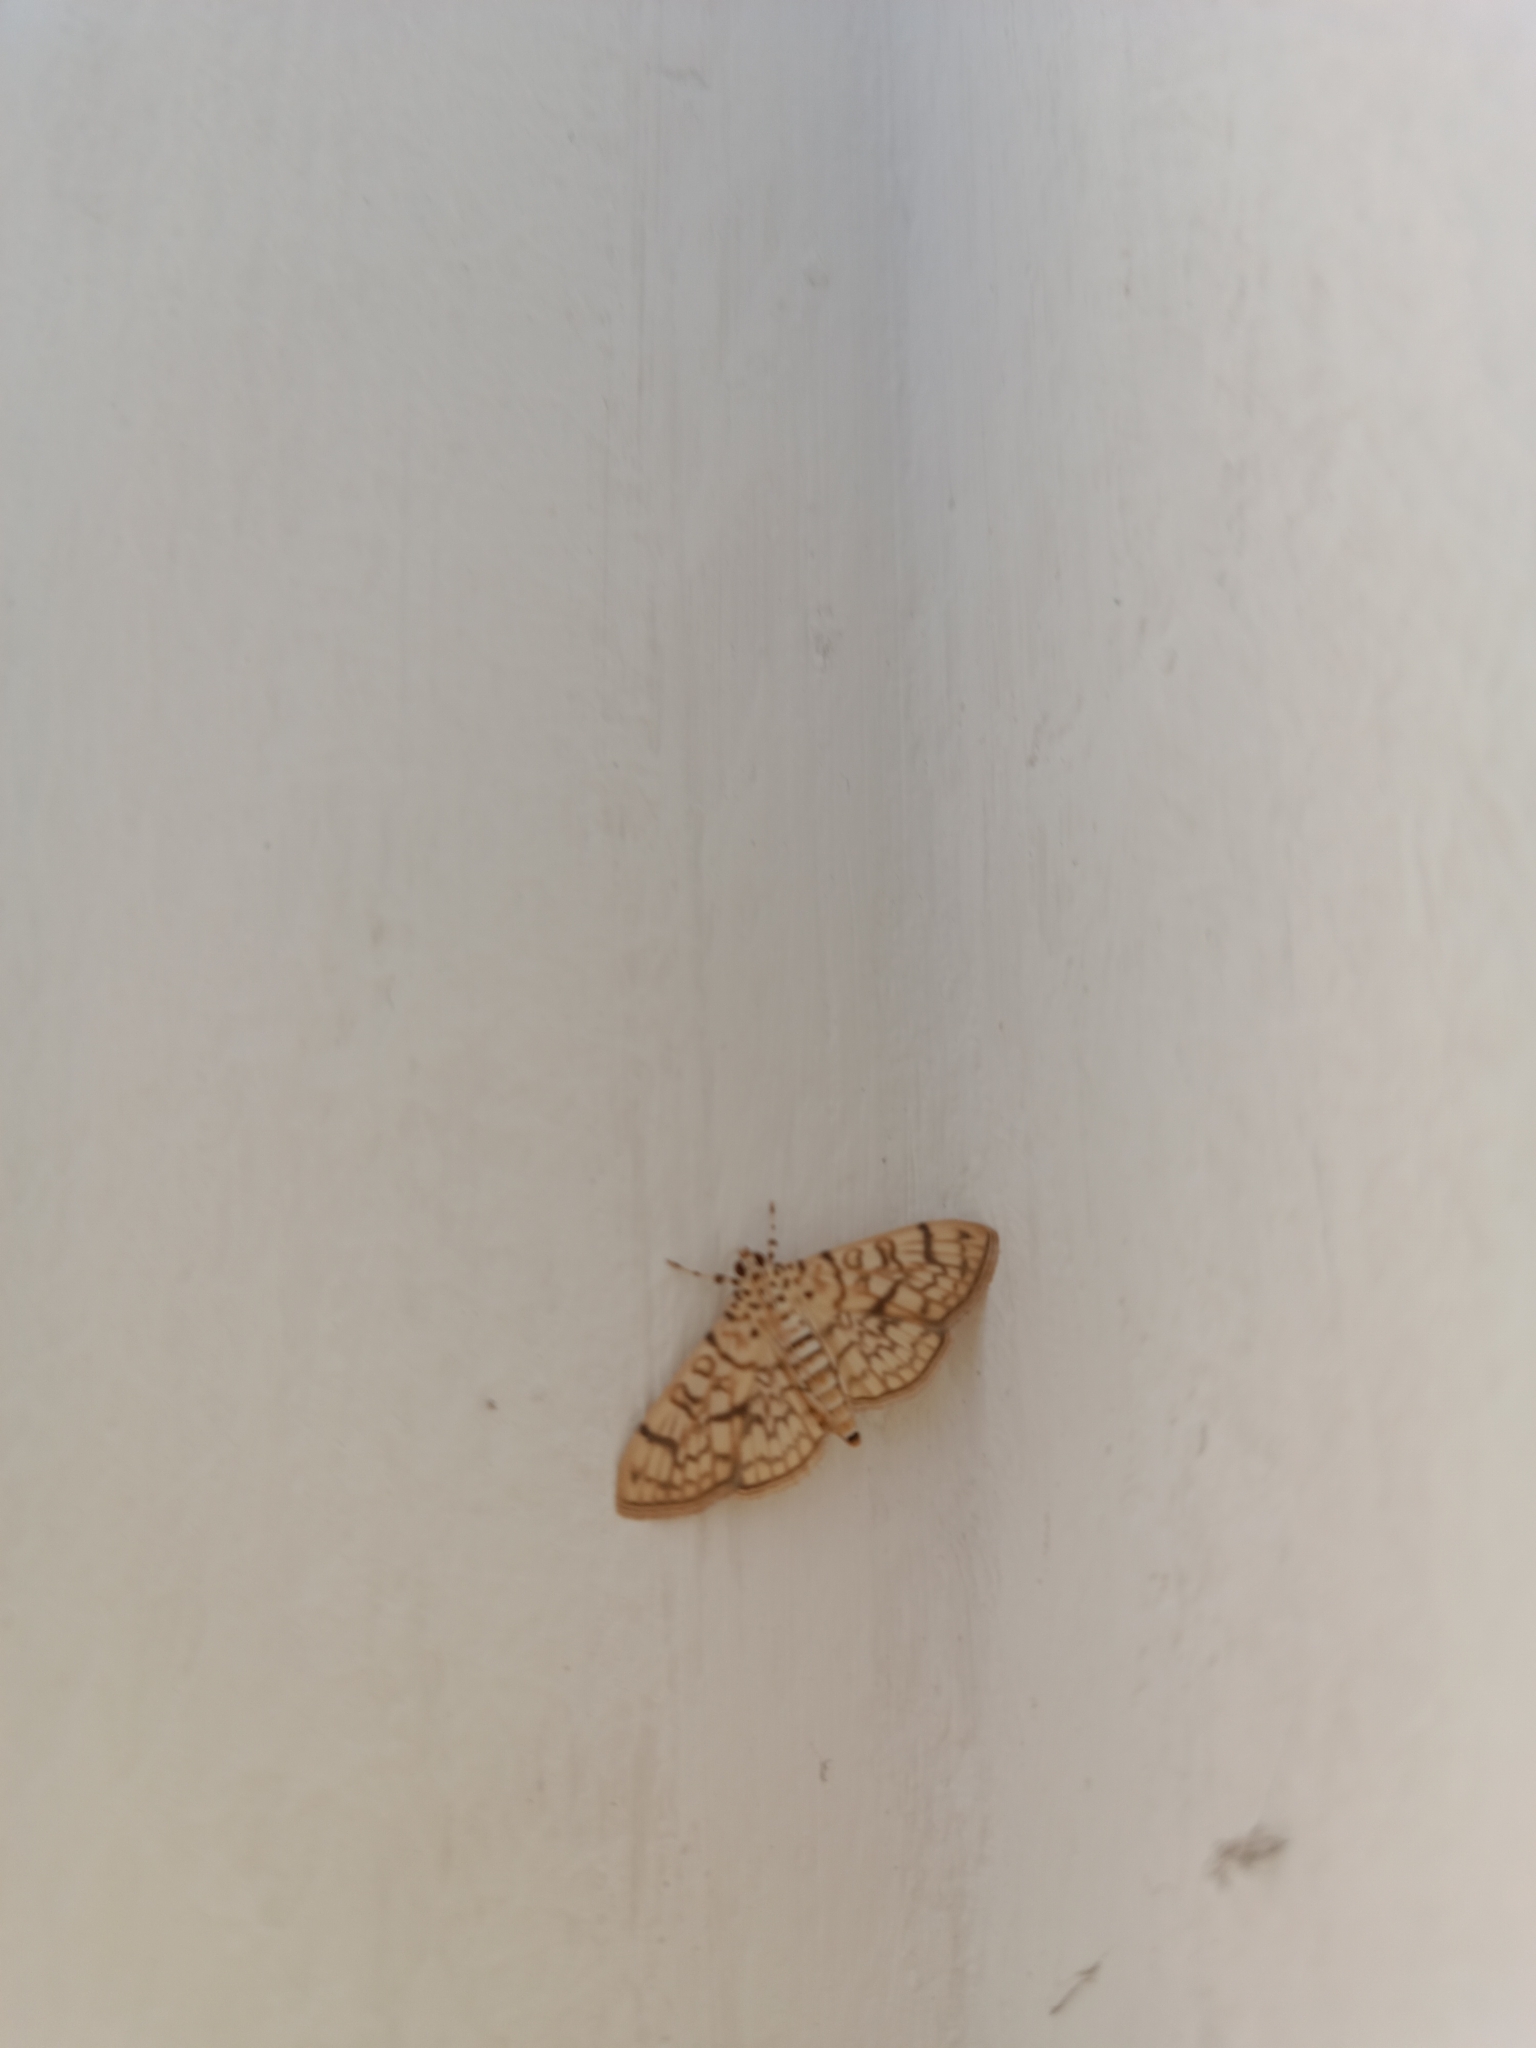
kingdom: Animalia
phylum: Arthropoda
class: Insecta
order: Lepidoptera
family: Crambidae
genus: Haritalodes
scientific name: Haritalodes derogata
